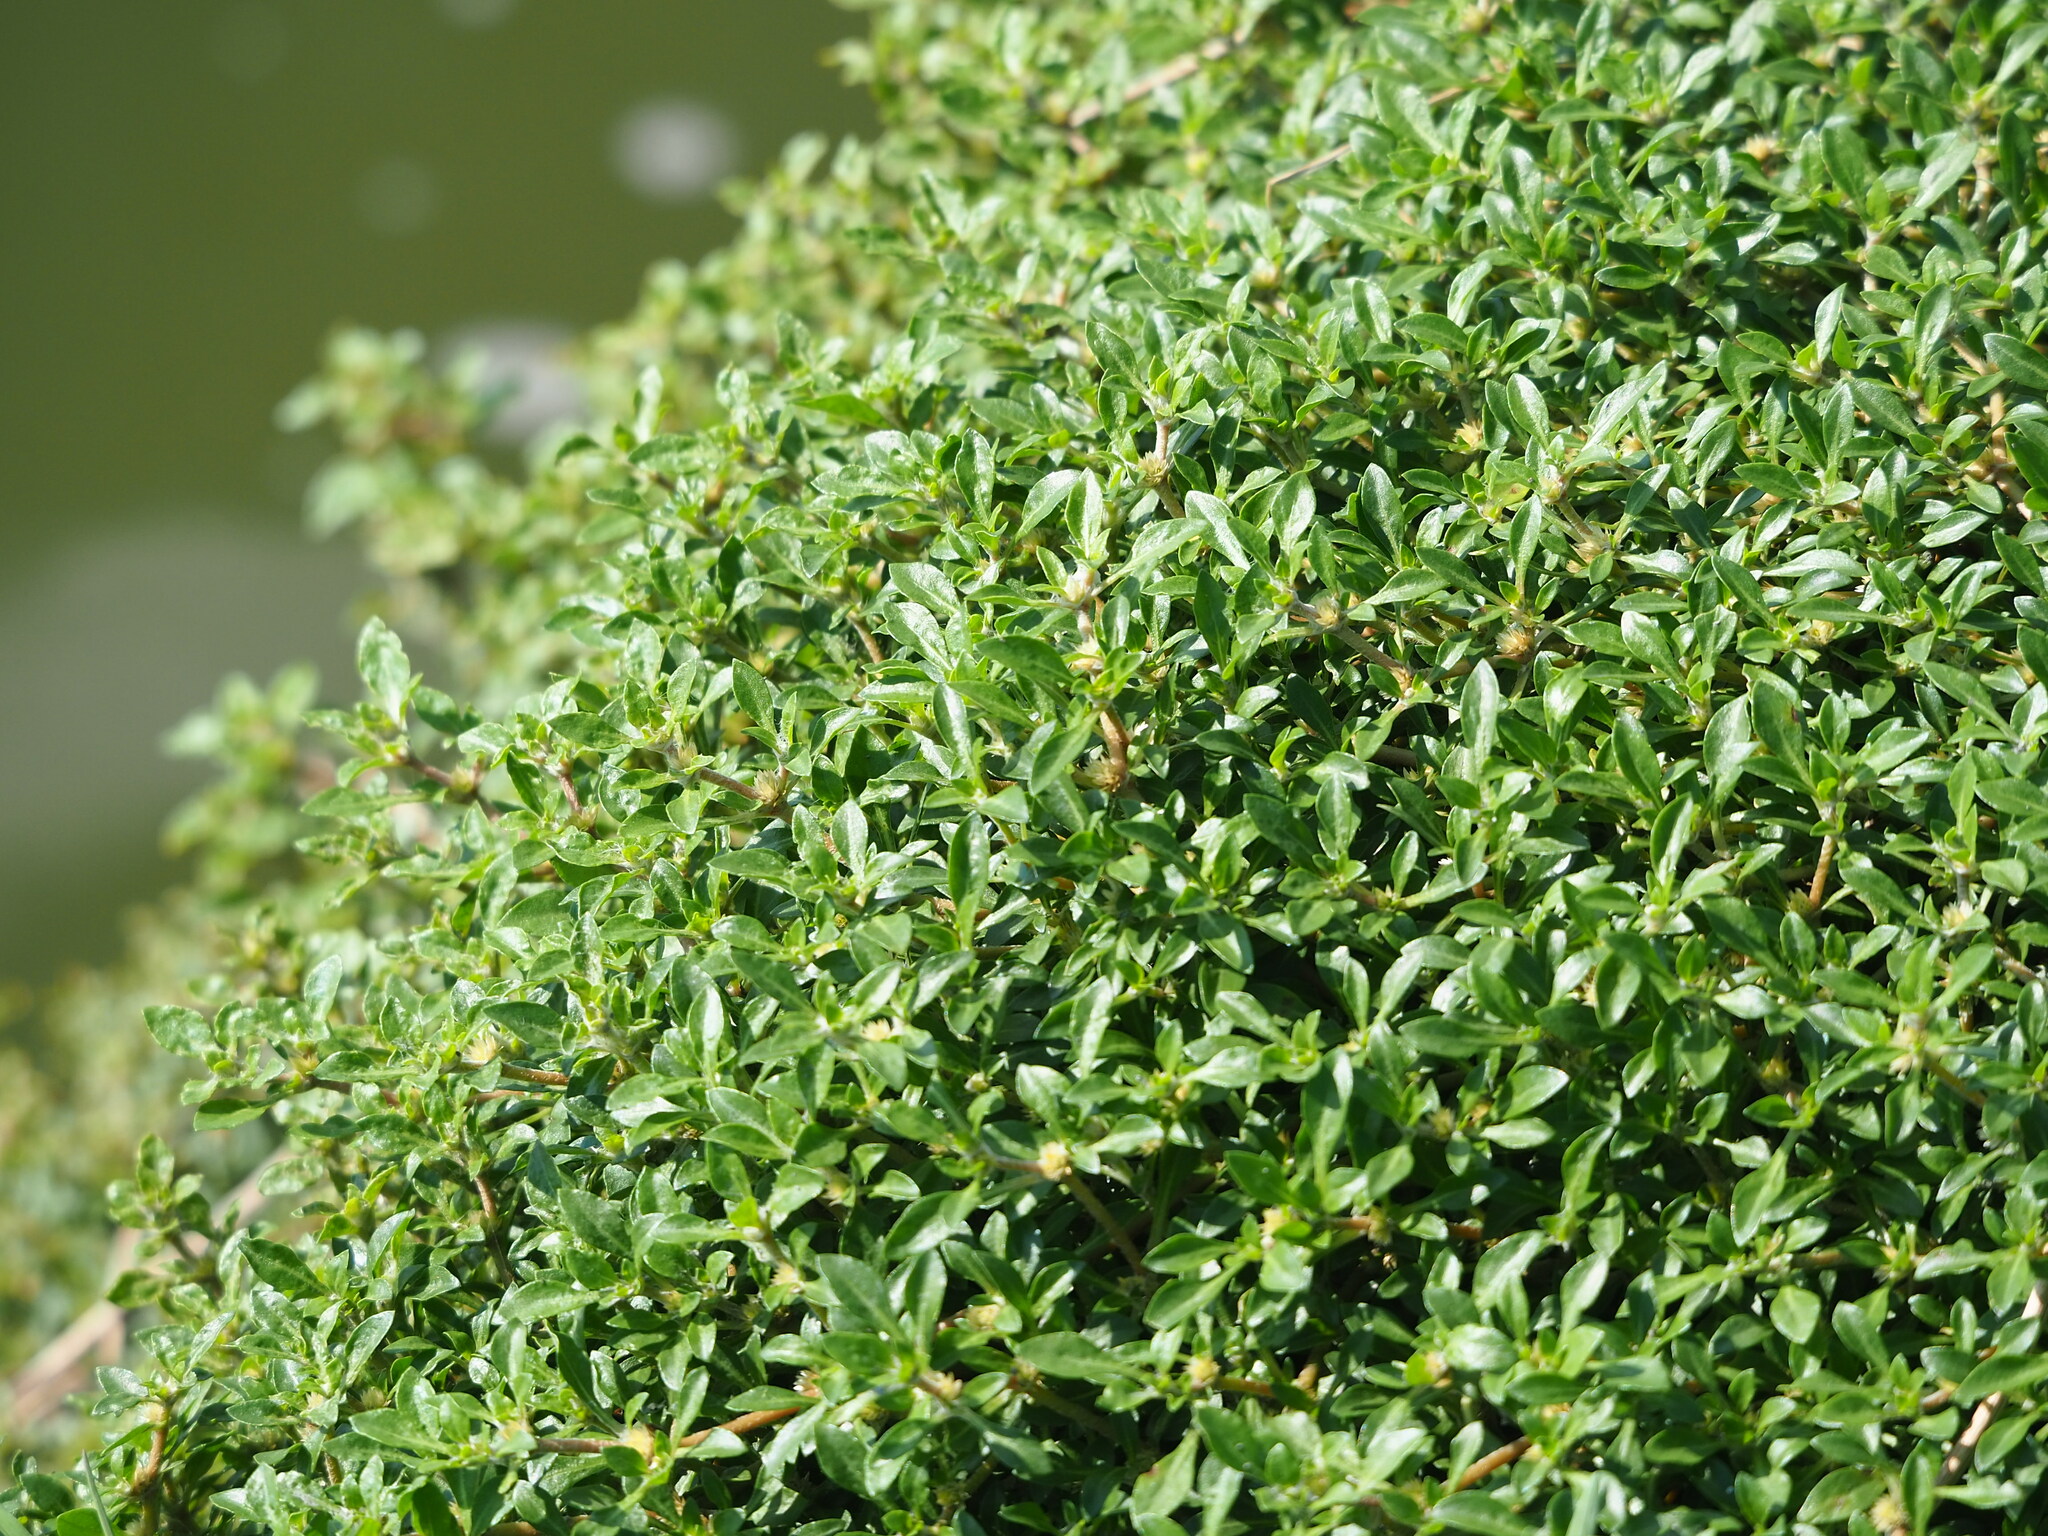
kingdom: Plantae
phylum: Tracheophyta
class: Magnoliopsida
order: Caryophyllales
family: Amaranthaceae
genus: Alternanthera
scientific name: Alternanthera sessilis
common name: Sessile joyweed
